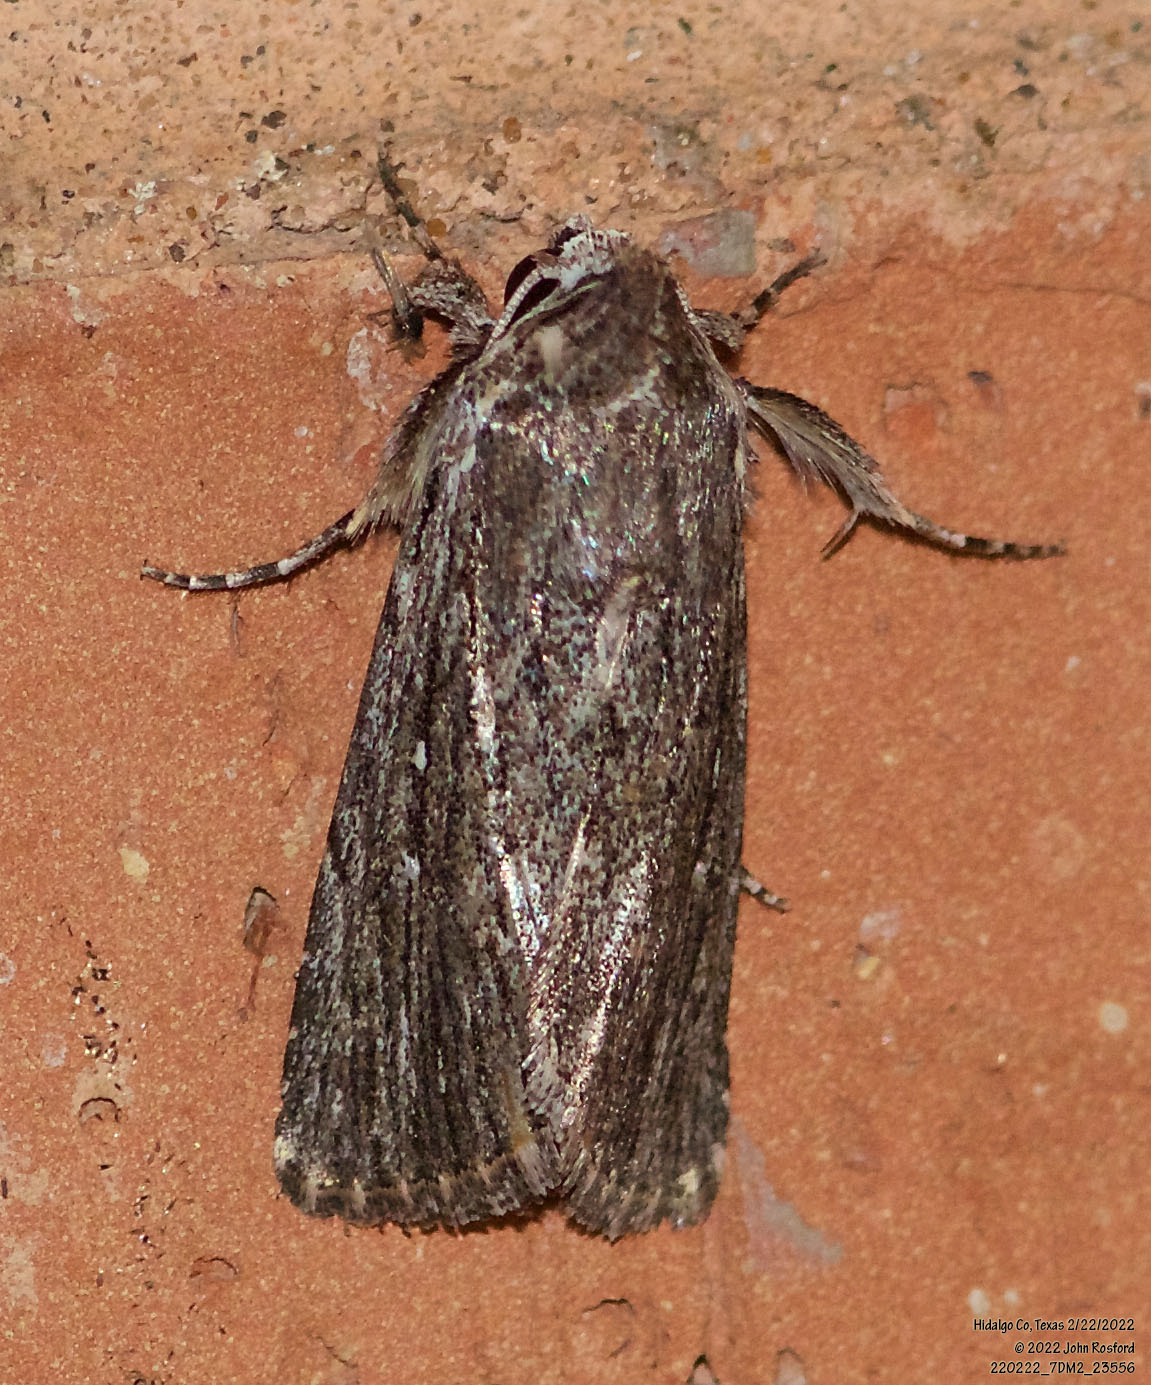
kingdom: Animalia
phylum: Arthropoda
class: Insecta
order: Lepidoptera
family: Noctuidae
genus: Neogalea
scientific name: Neogalea sunia
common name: Lantana stick caterpillar
